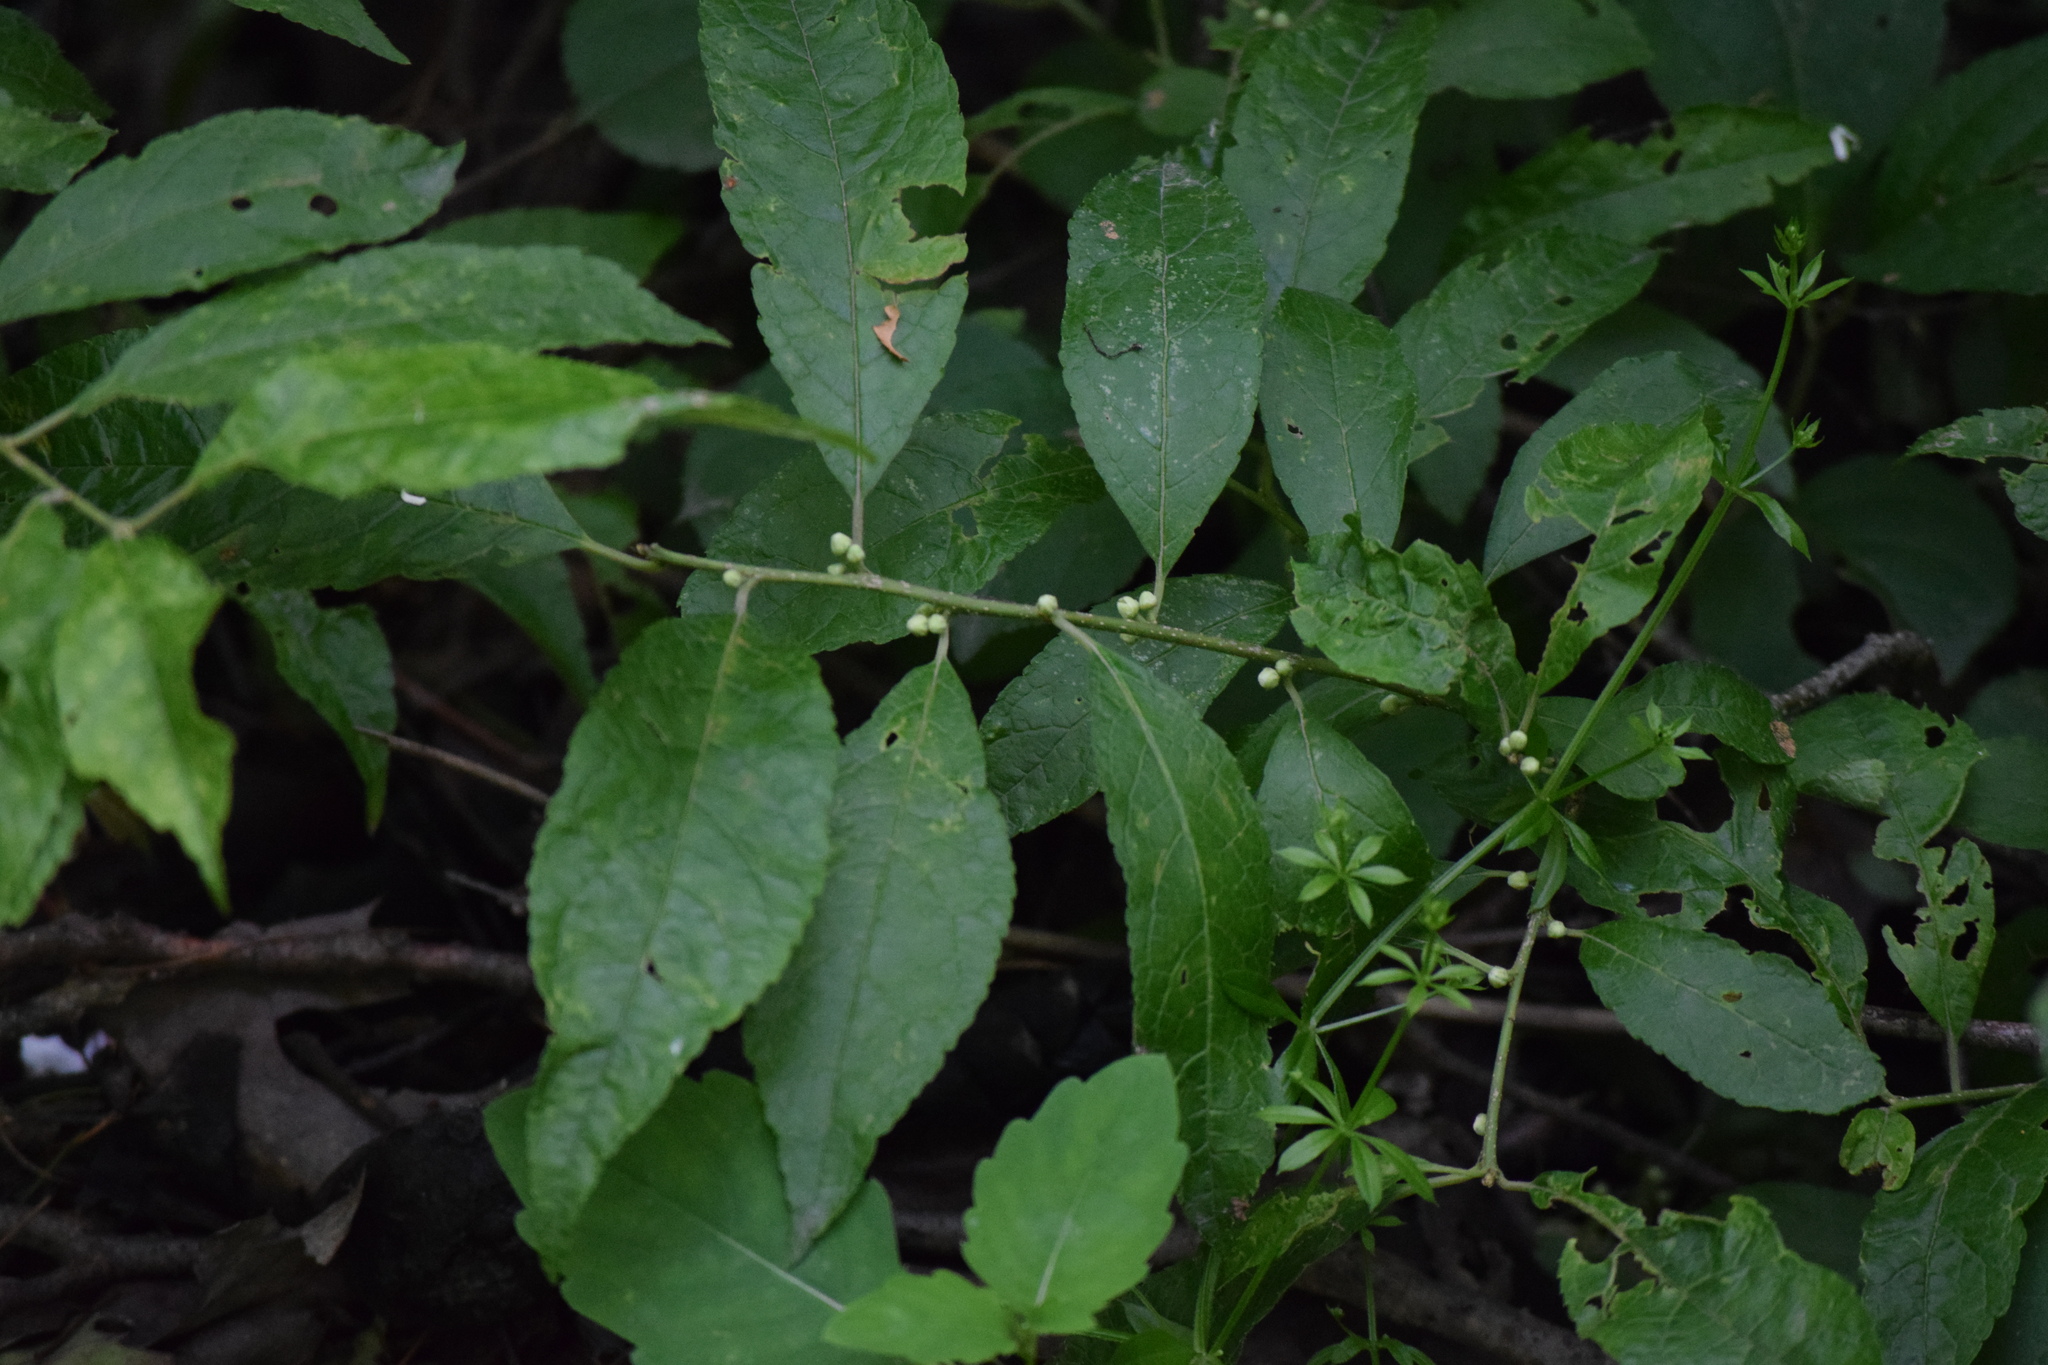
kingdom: Plantae
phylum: Tracheophyta
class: Magnoliopsida
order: Aquifoliales
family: Aquifoliaceae
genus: Ilex
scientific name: Ilex verticillata
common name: Virginia winterberry
